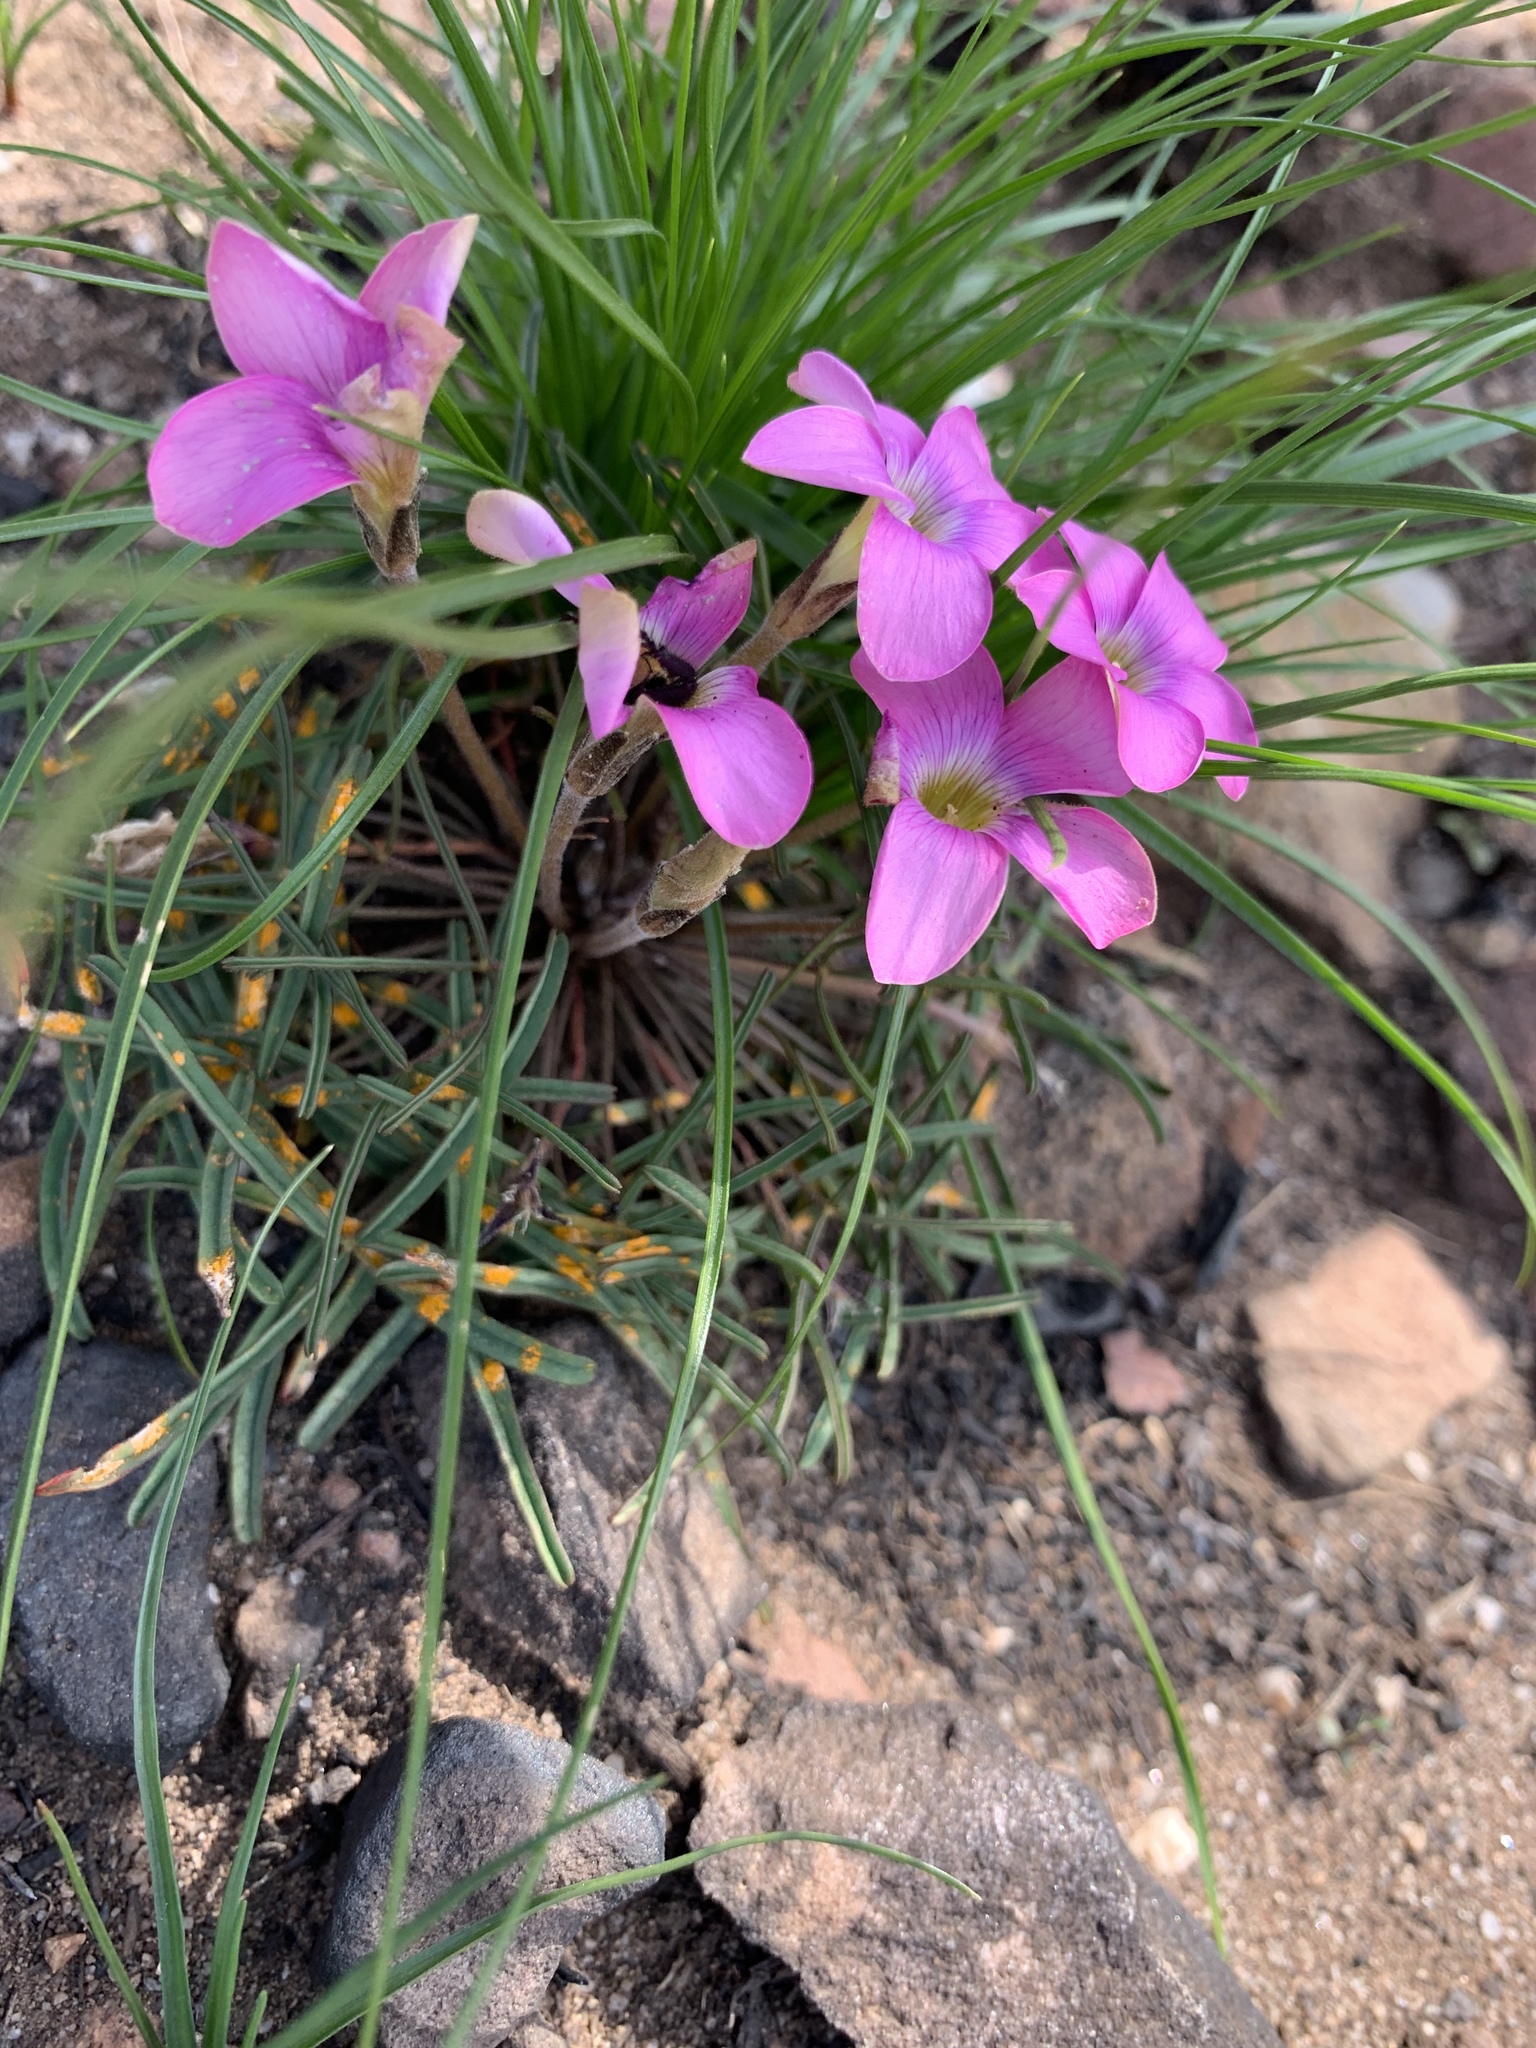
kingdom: Plantae
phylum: Tracheophyta
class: Magnoliopsida
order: Oxalidales
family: Oxalidaceae
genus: Oxalis
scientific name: Oxalis polyphylla
